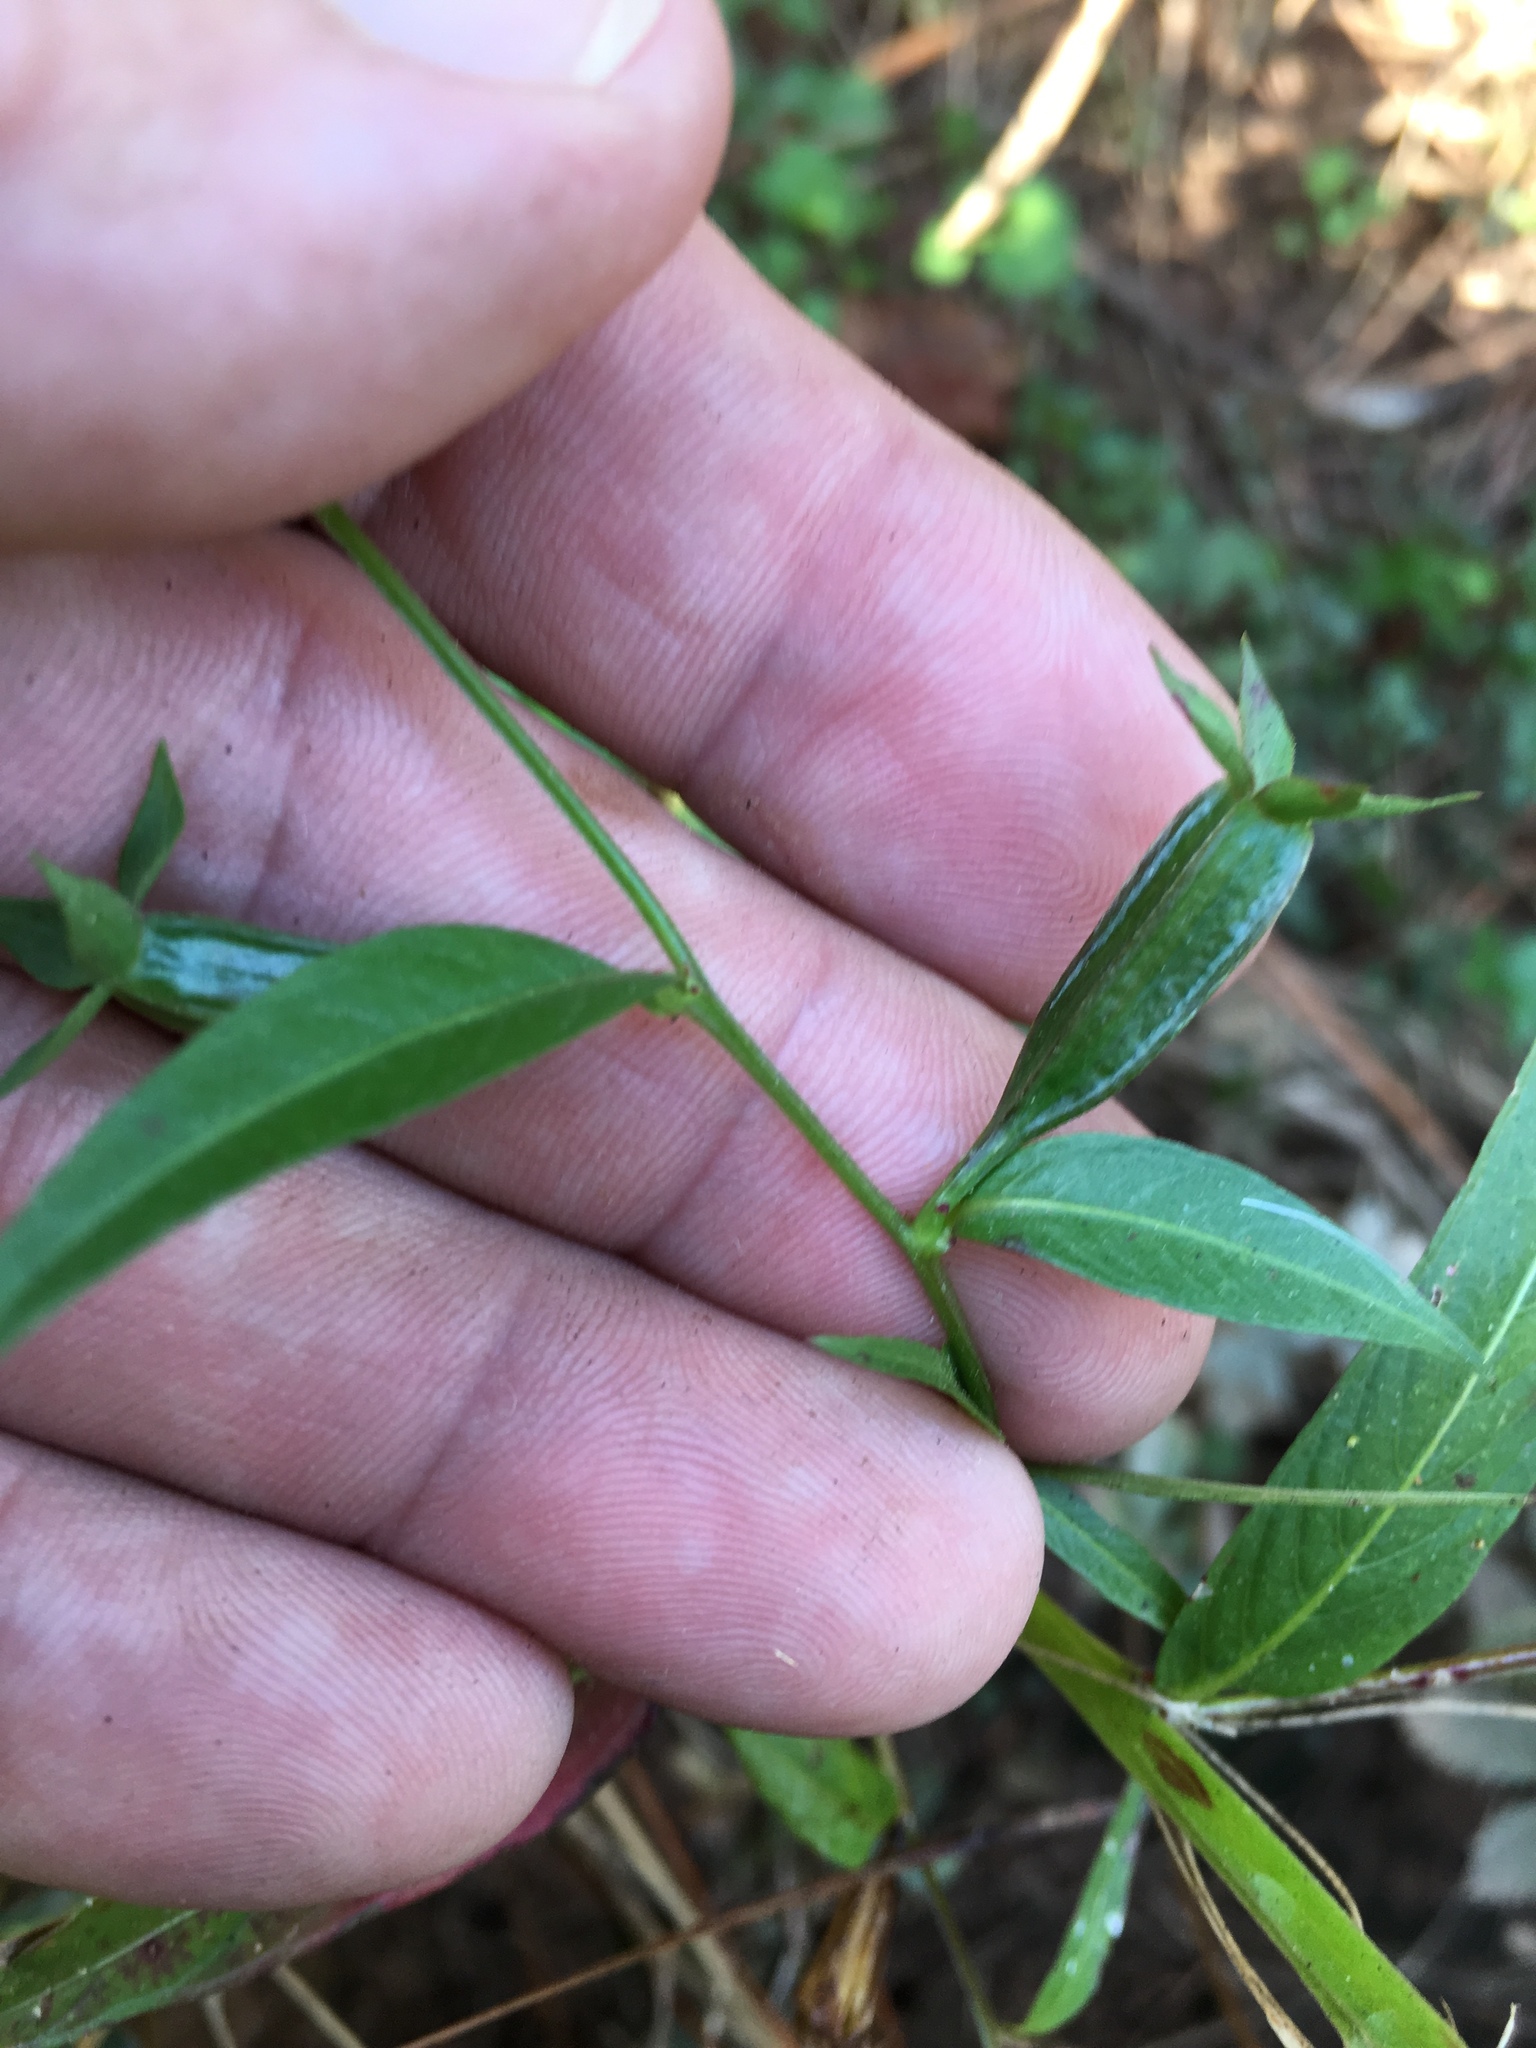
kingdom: Plantae
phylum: Tracheophyta
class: Magnoliopsida
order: Myrtales
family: Onagraceae
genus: Ludwigia
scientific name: Ludwigia alternifolia
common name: Rattlebox
